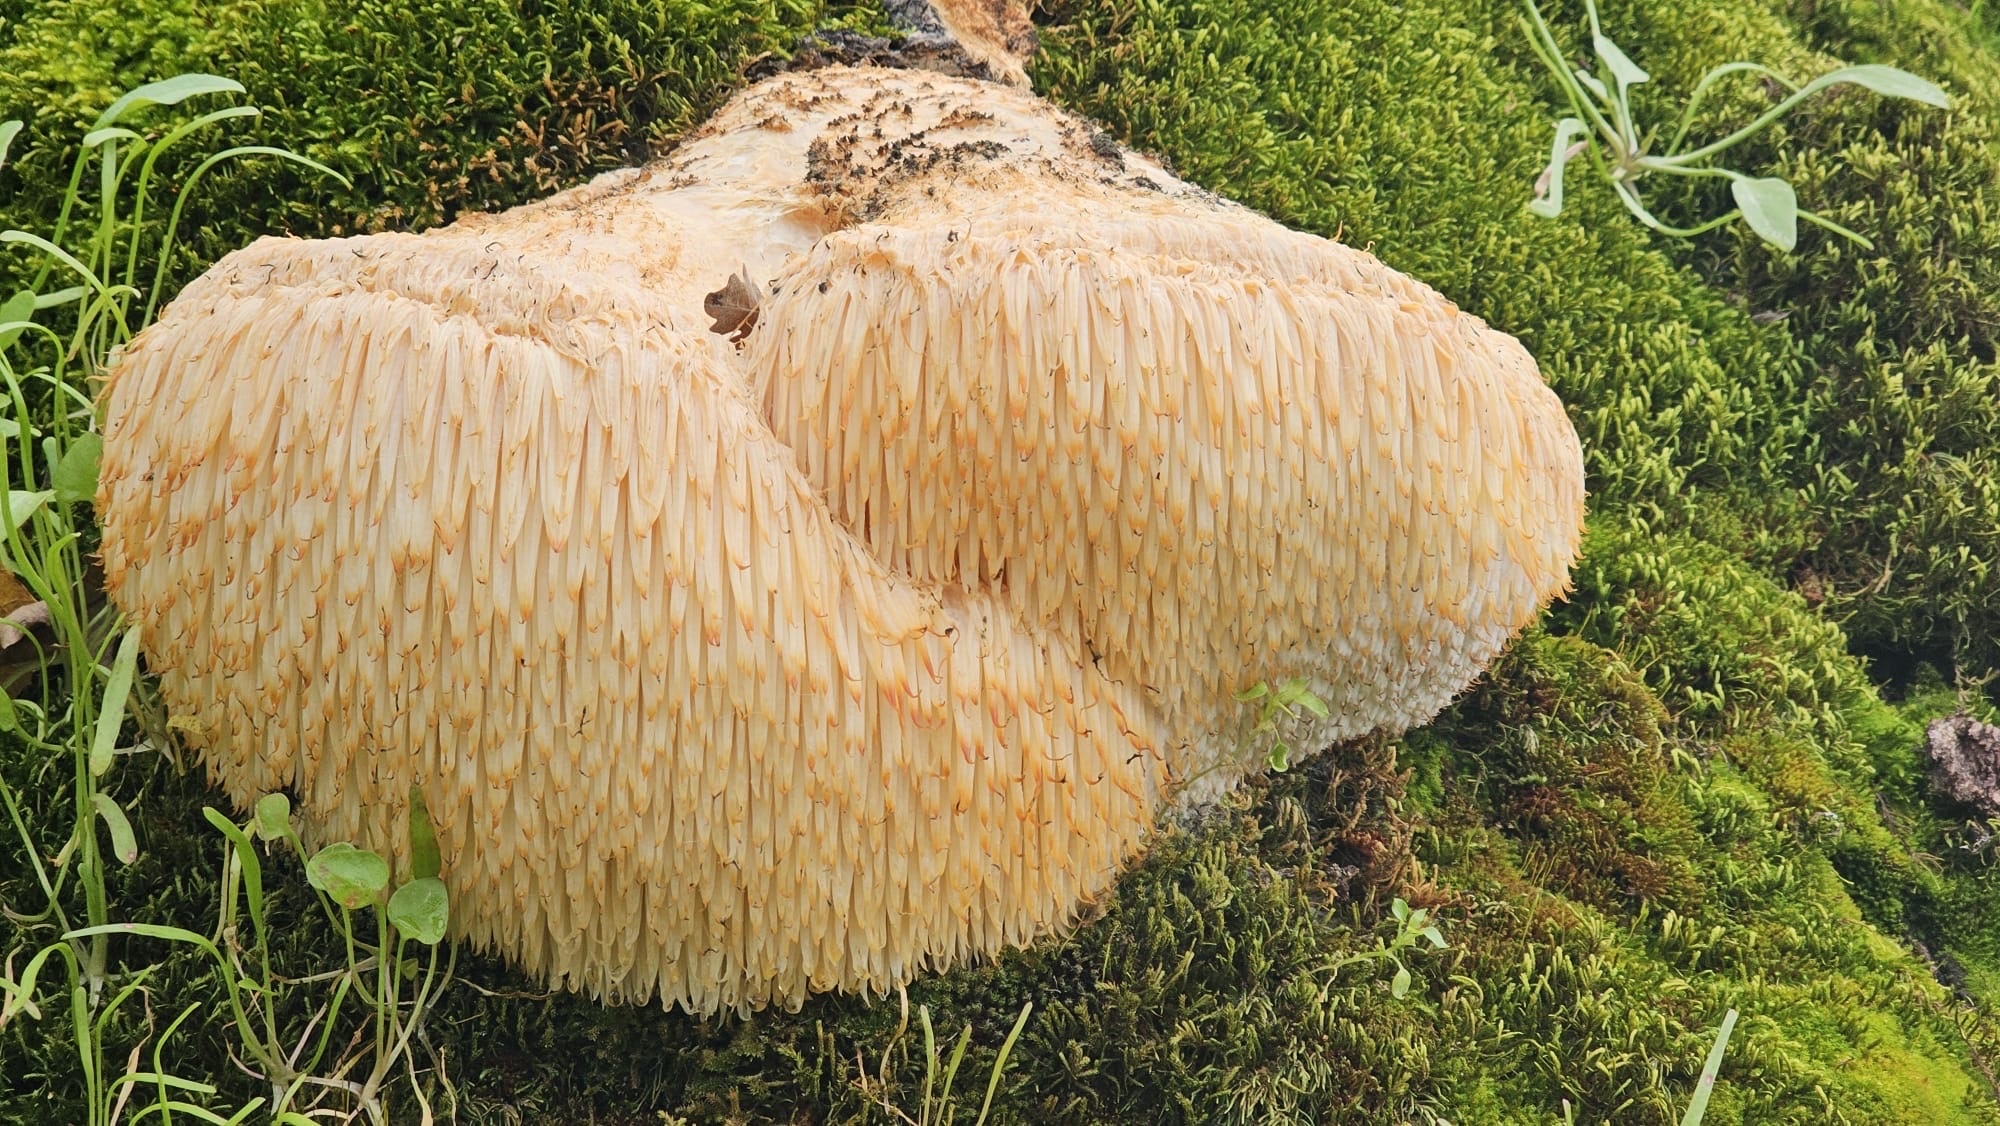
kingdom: Fungi
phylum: Basidiomycota
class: Agaricomycetes
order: Russulales
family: Hericiaceae
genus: Hericium
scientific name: Hericium erinaceus
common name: Bearded tooth
